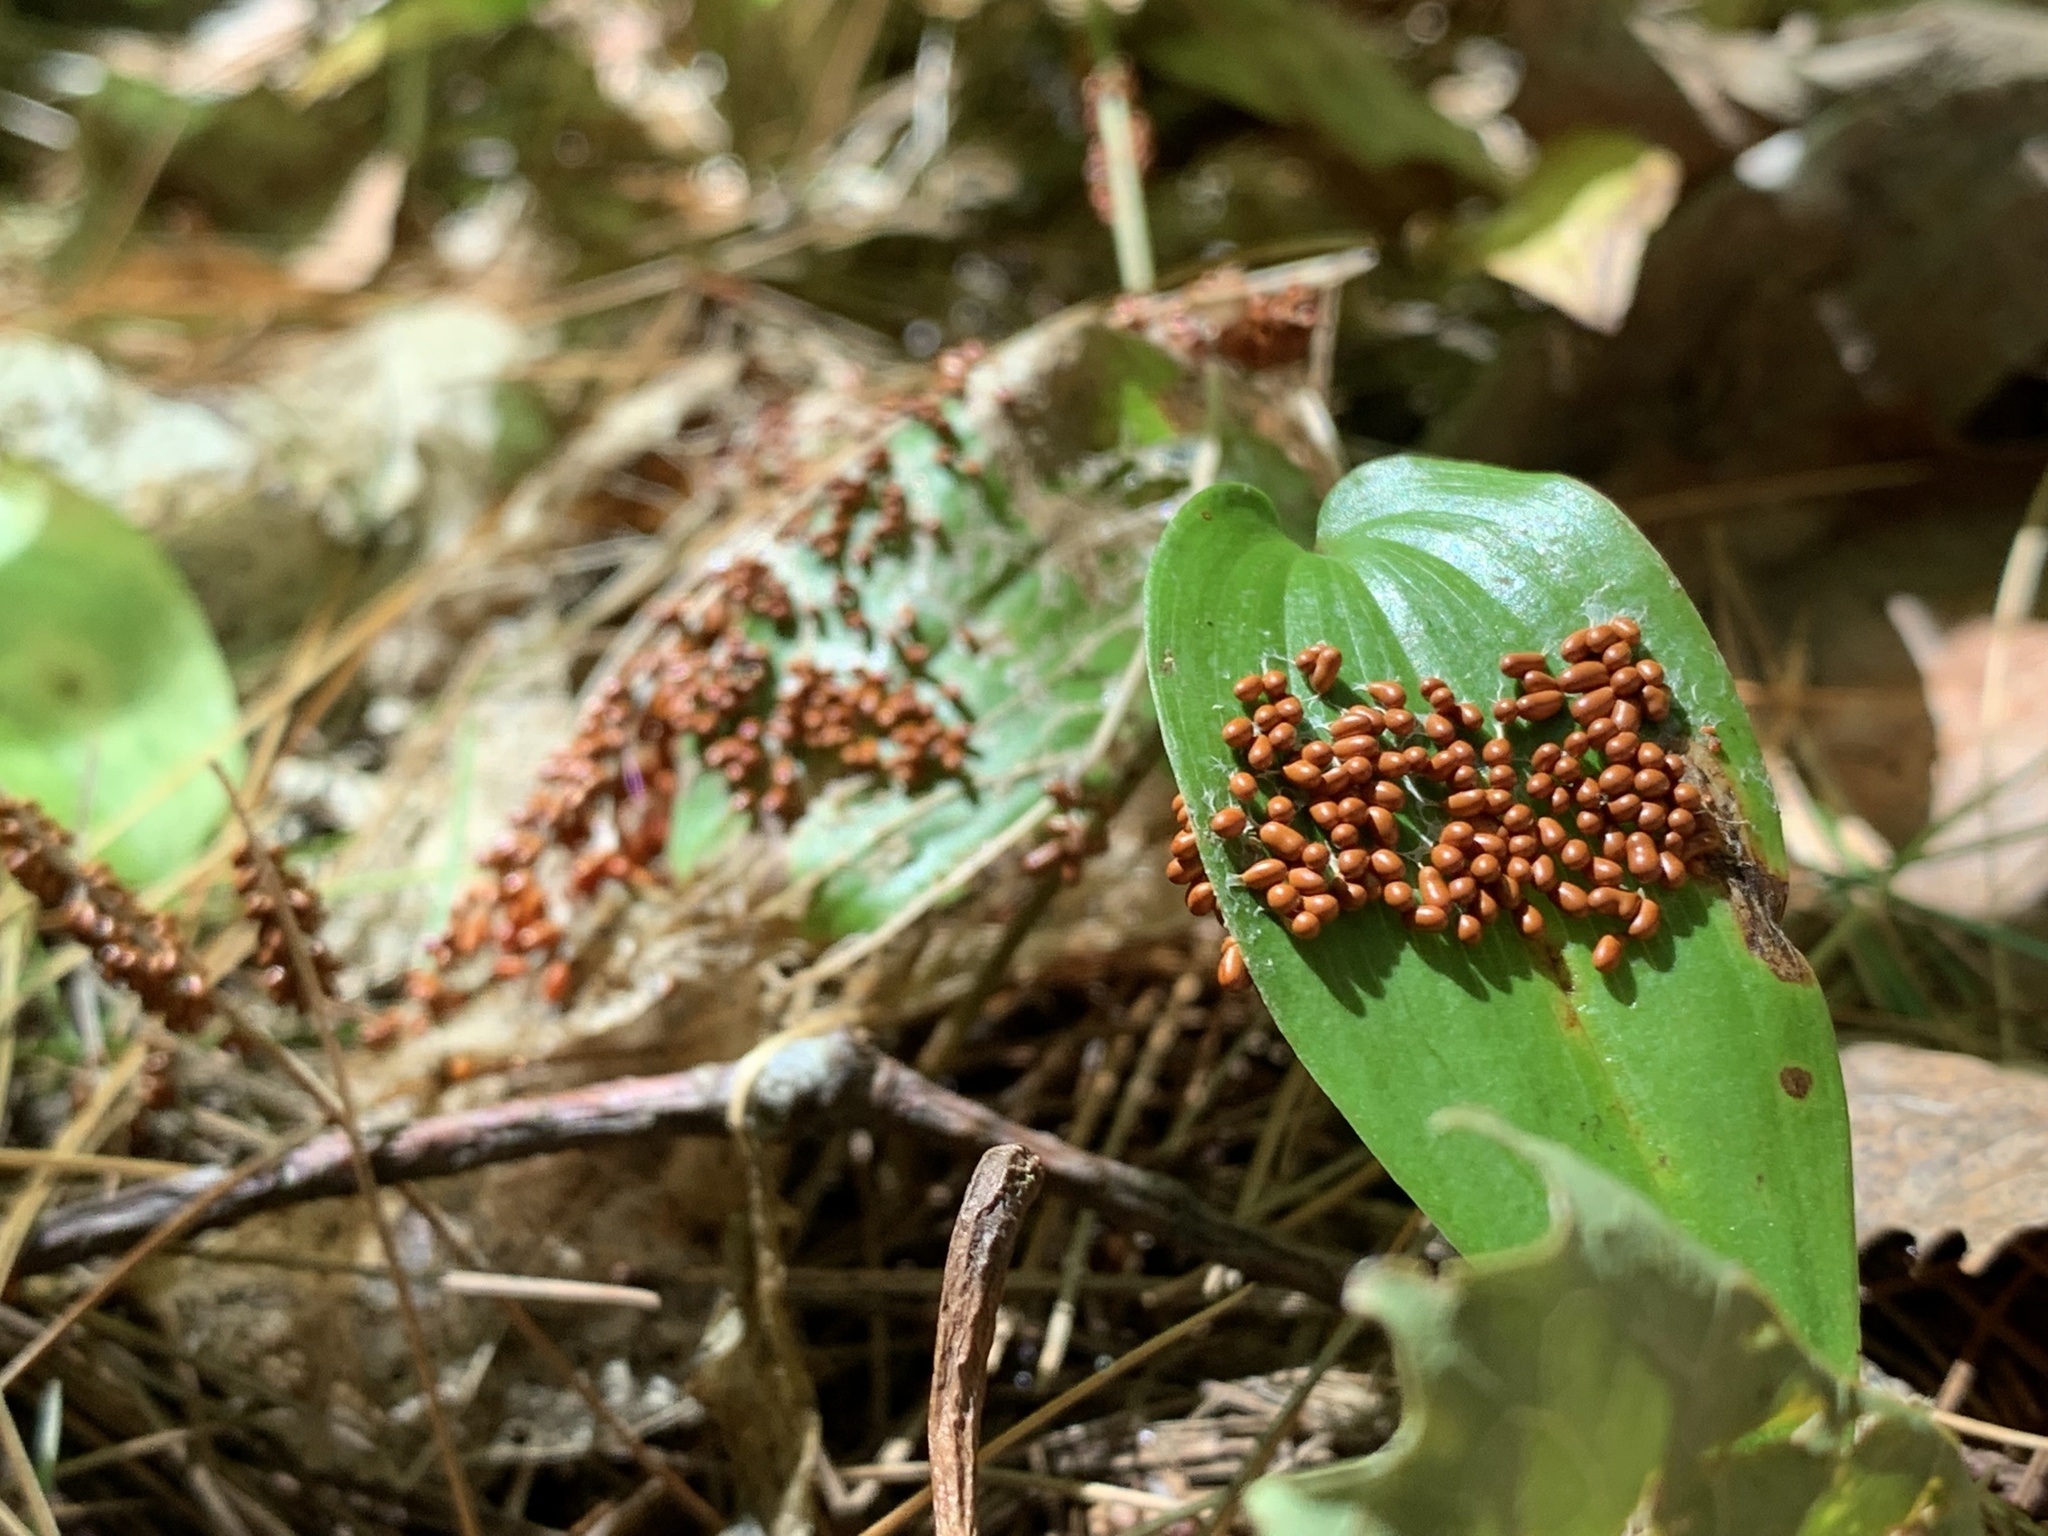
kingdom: Protozoa
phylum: Mycetozoa
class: Myxomycetes
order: Physarales
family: Physaraceae
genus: Leocarpus
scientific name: Leocarpus fragilis
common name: Insect-egg slime
